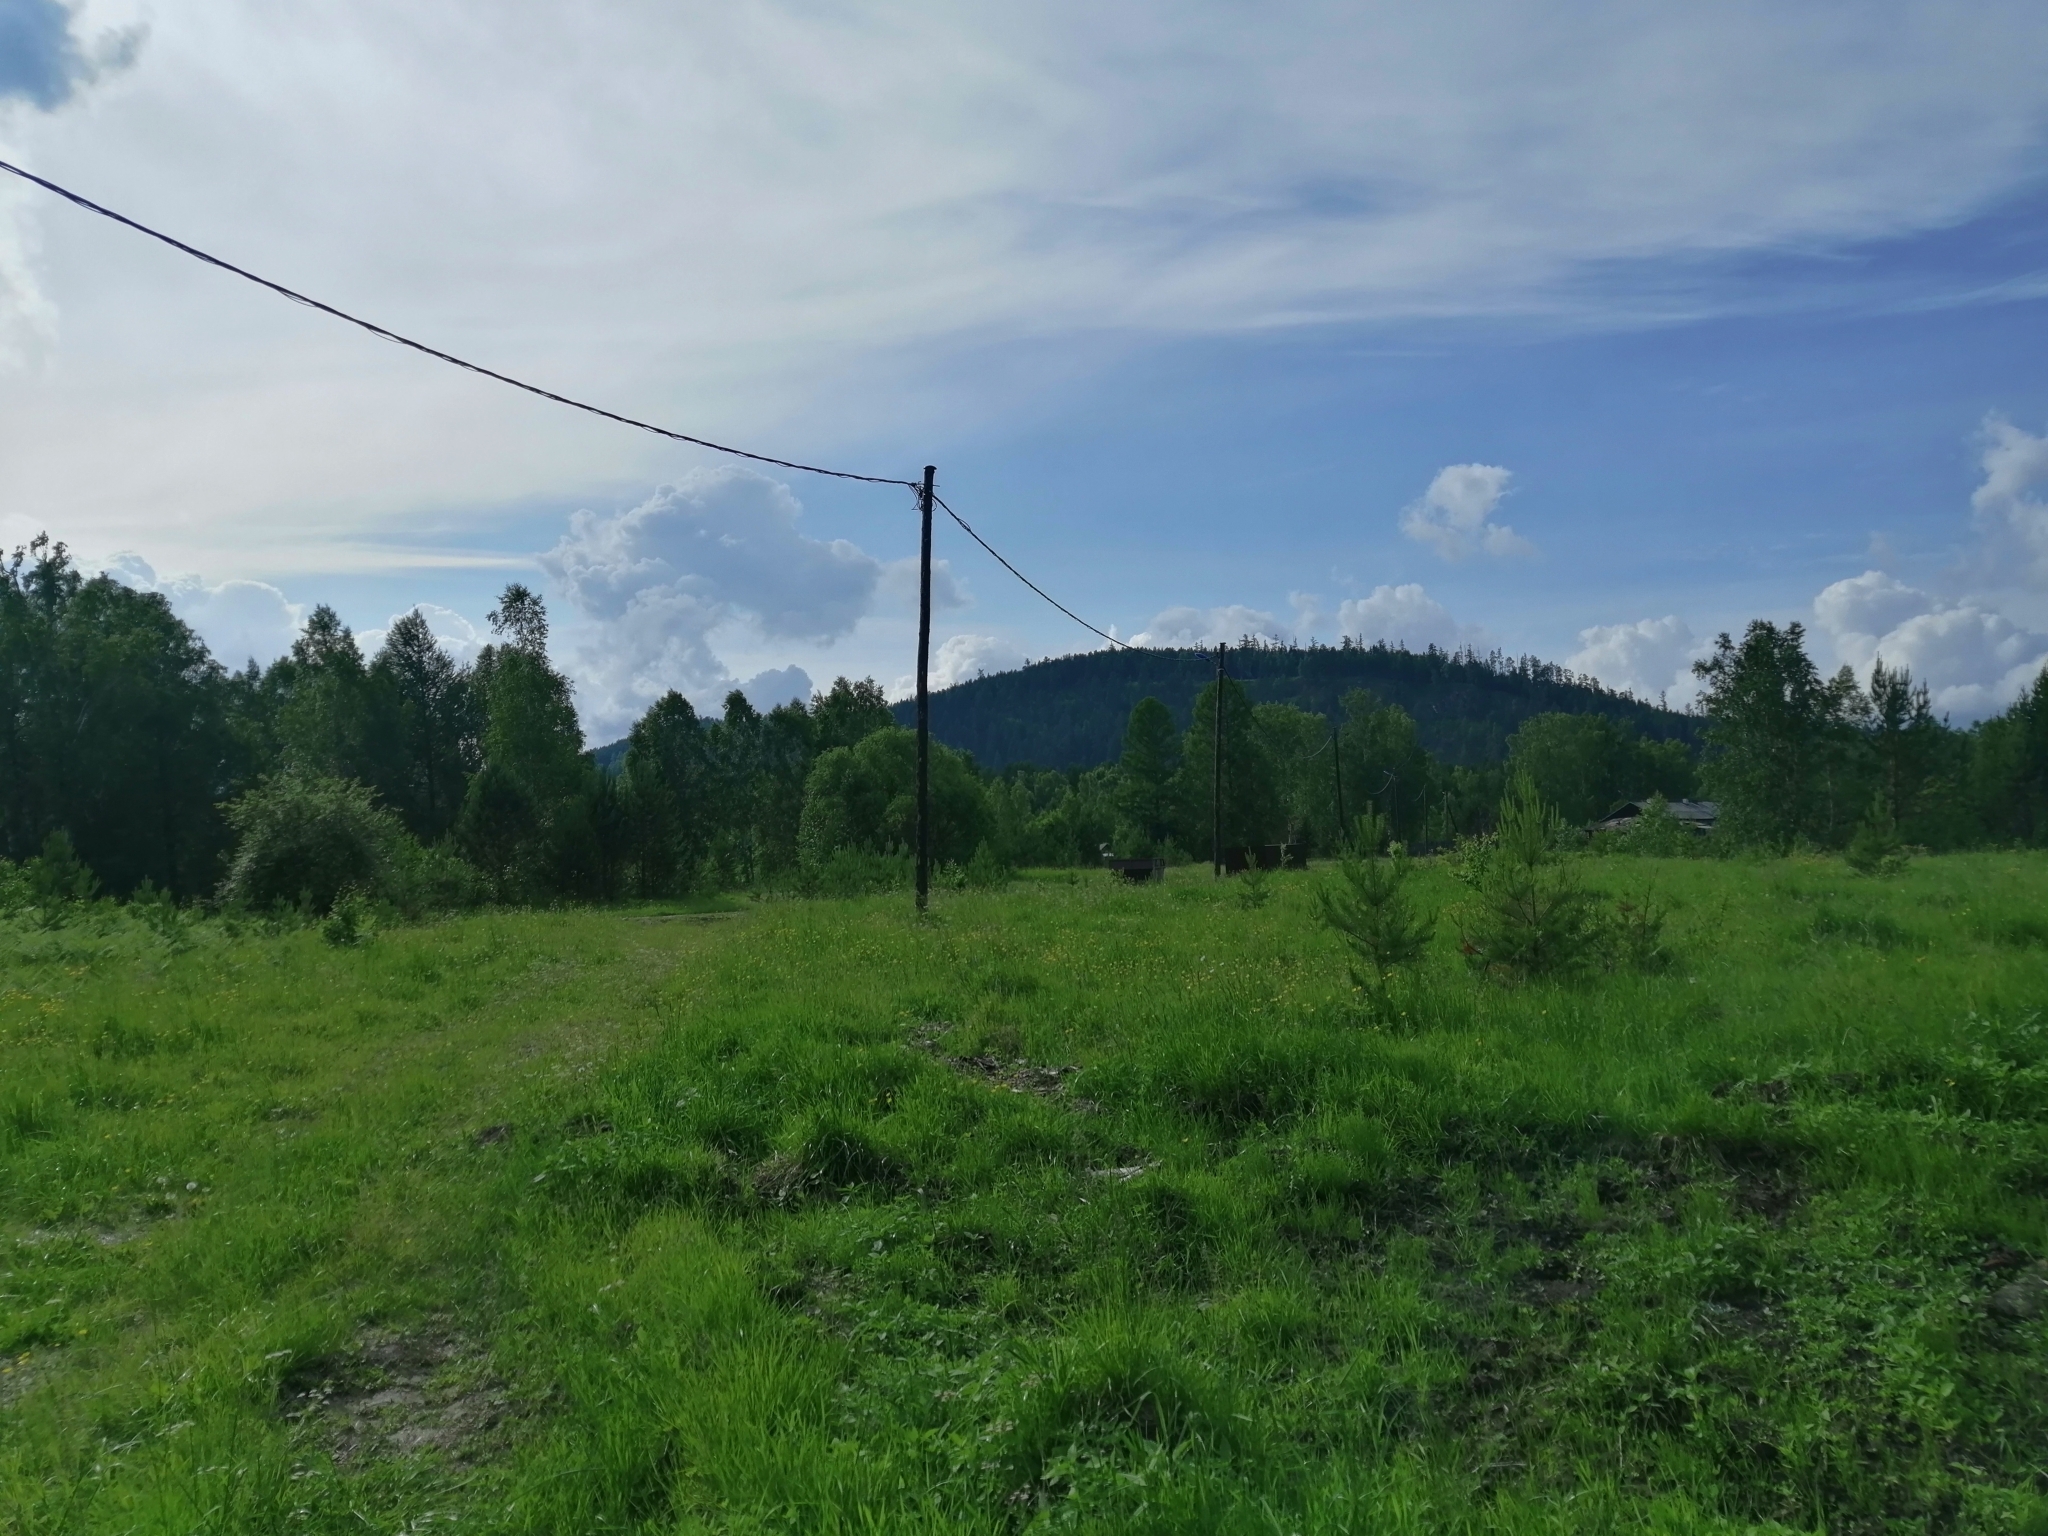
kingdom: Plantae
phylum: Tracheophyta
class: Pinopsida
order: Pinales
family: Pinaceae
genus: Pinus
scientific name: Pinus sylvestris
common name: Scots pine
